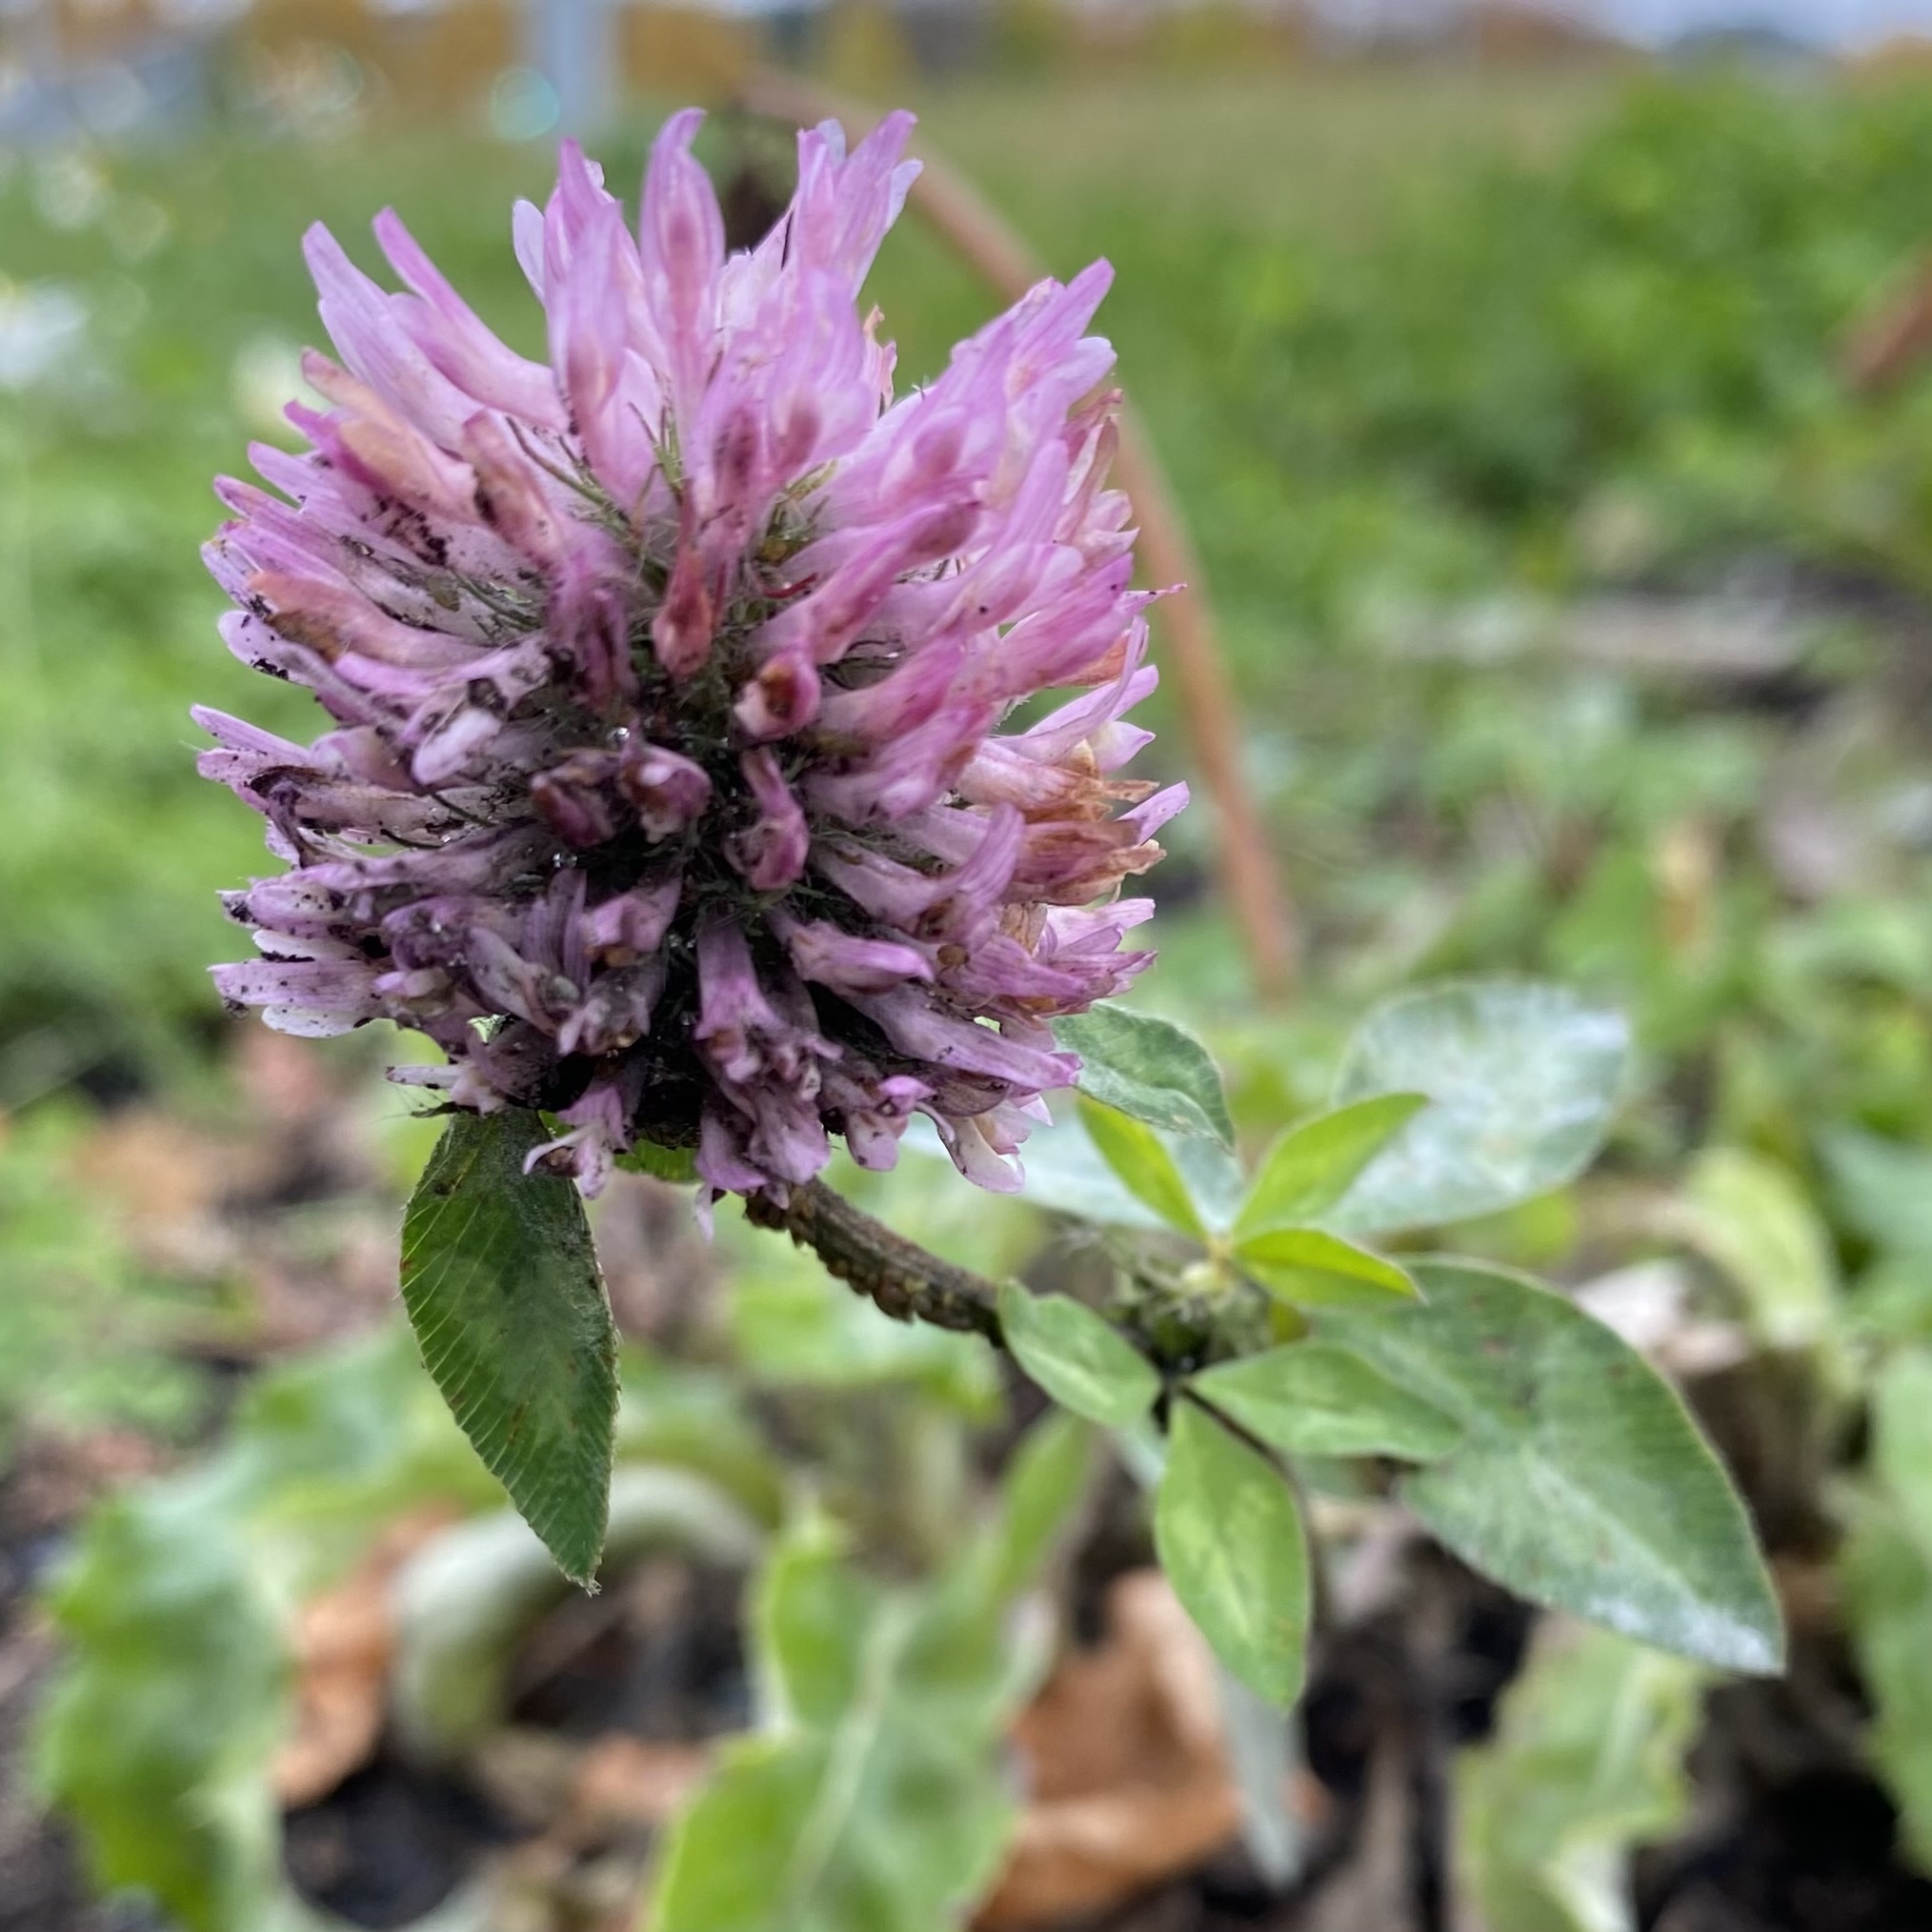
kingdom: Plantae
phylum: Tracheophyta
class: Magnoliopsida
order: Fabales
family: Fabaceae
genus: Trifolium
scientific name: Trifolium pratense
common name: Red clover
